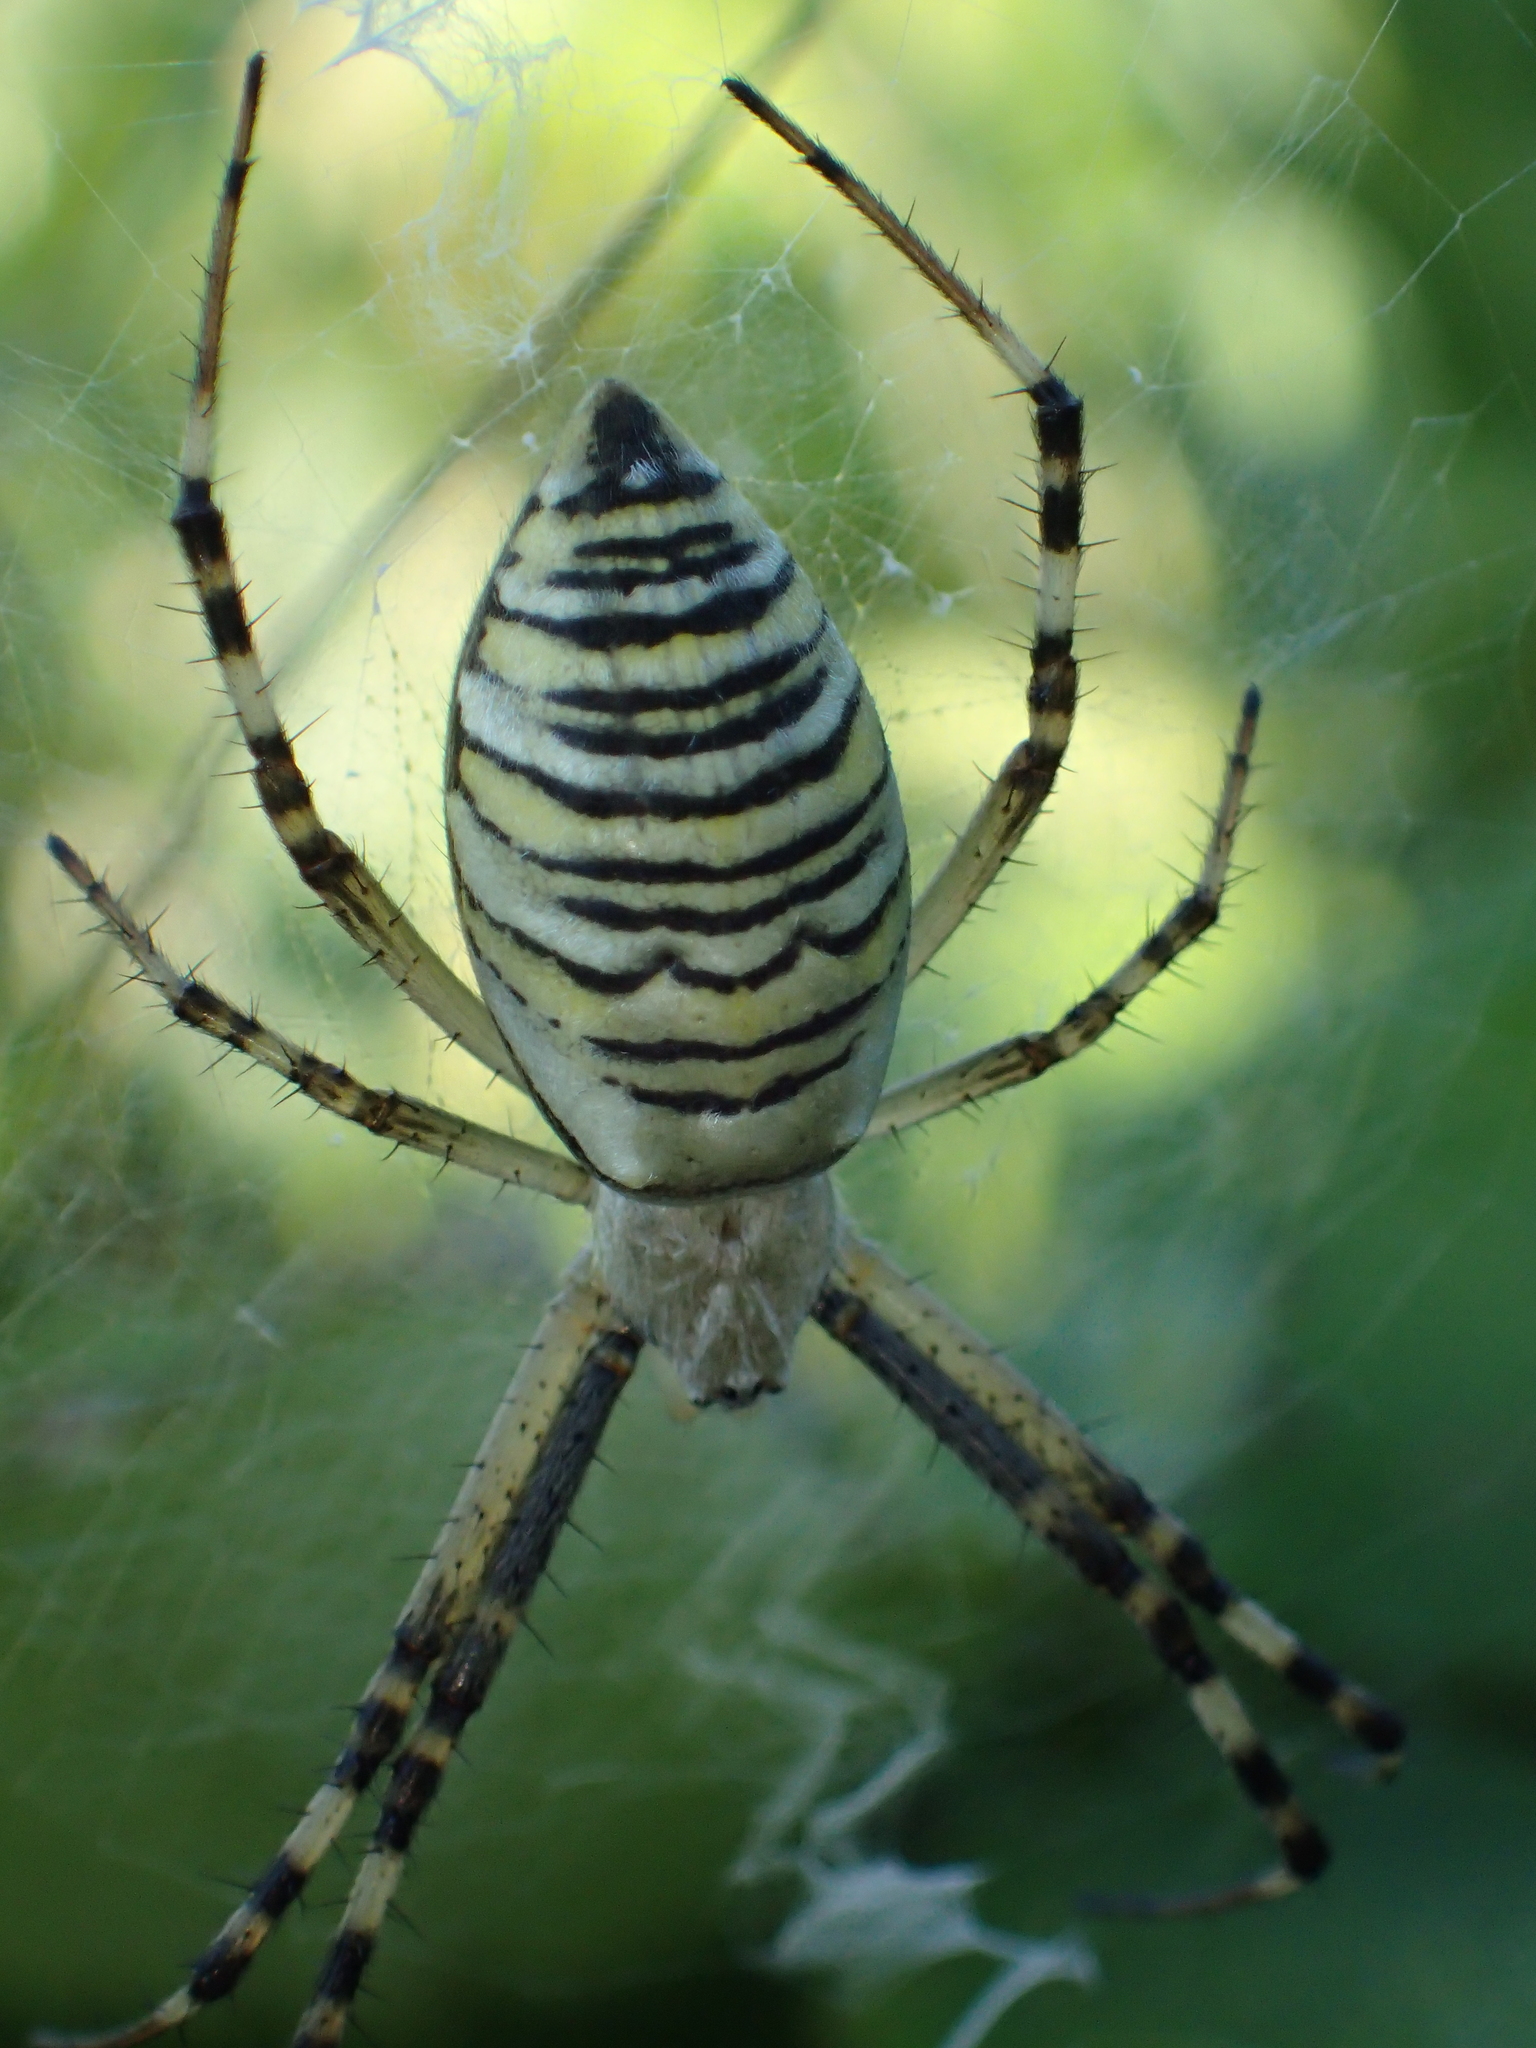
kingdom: Animalia
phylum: Arthropoda
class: Arachnida
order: Araneae
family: Araneidae
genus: Argiope
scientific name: Argiope bruennichi
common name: Wasp spider
